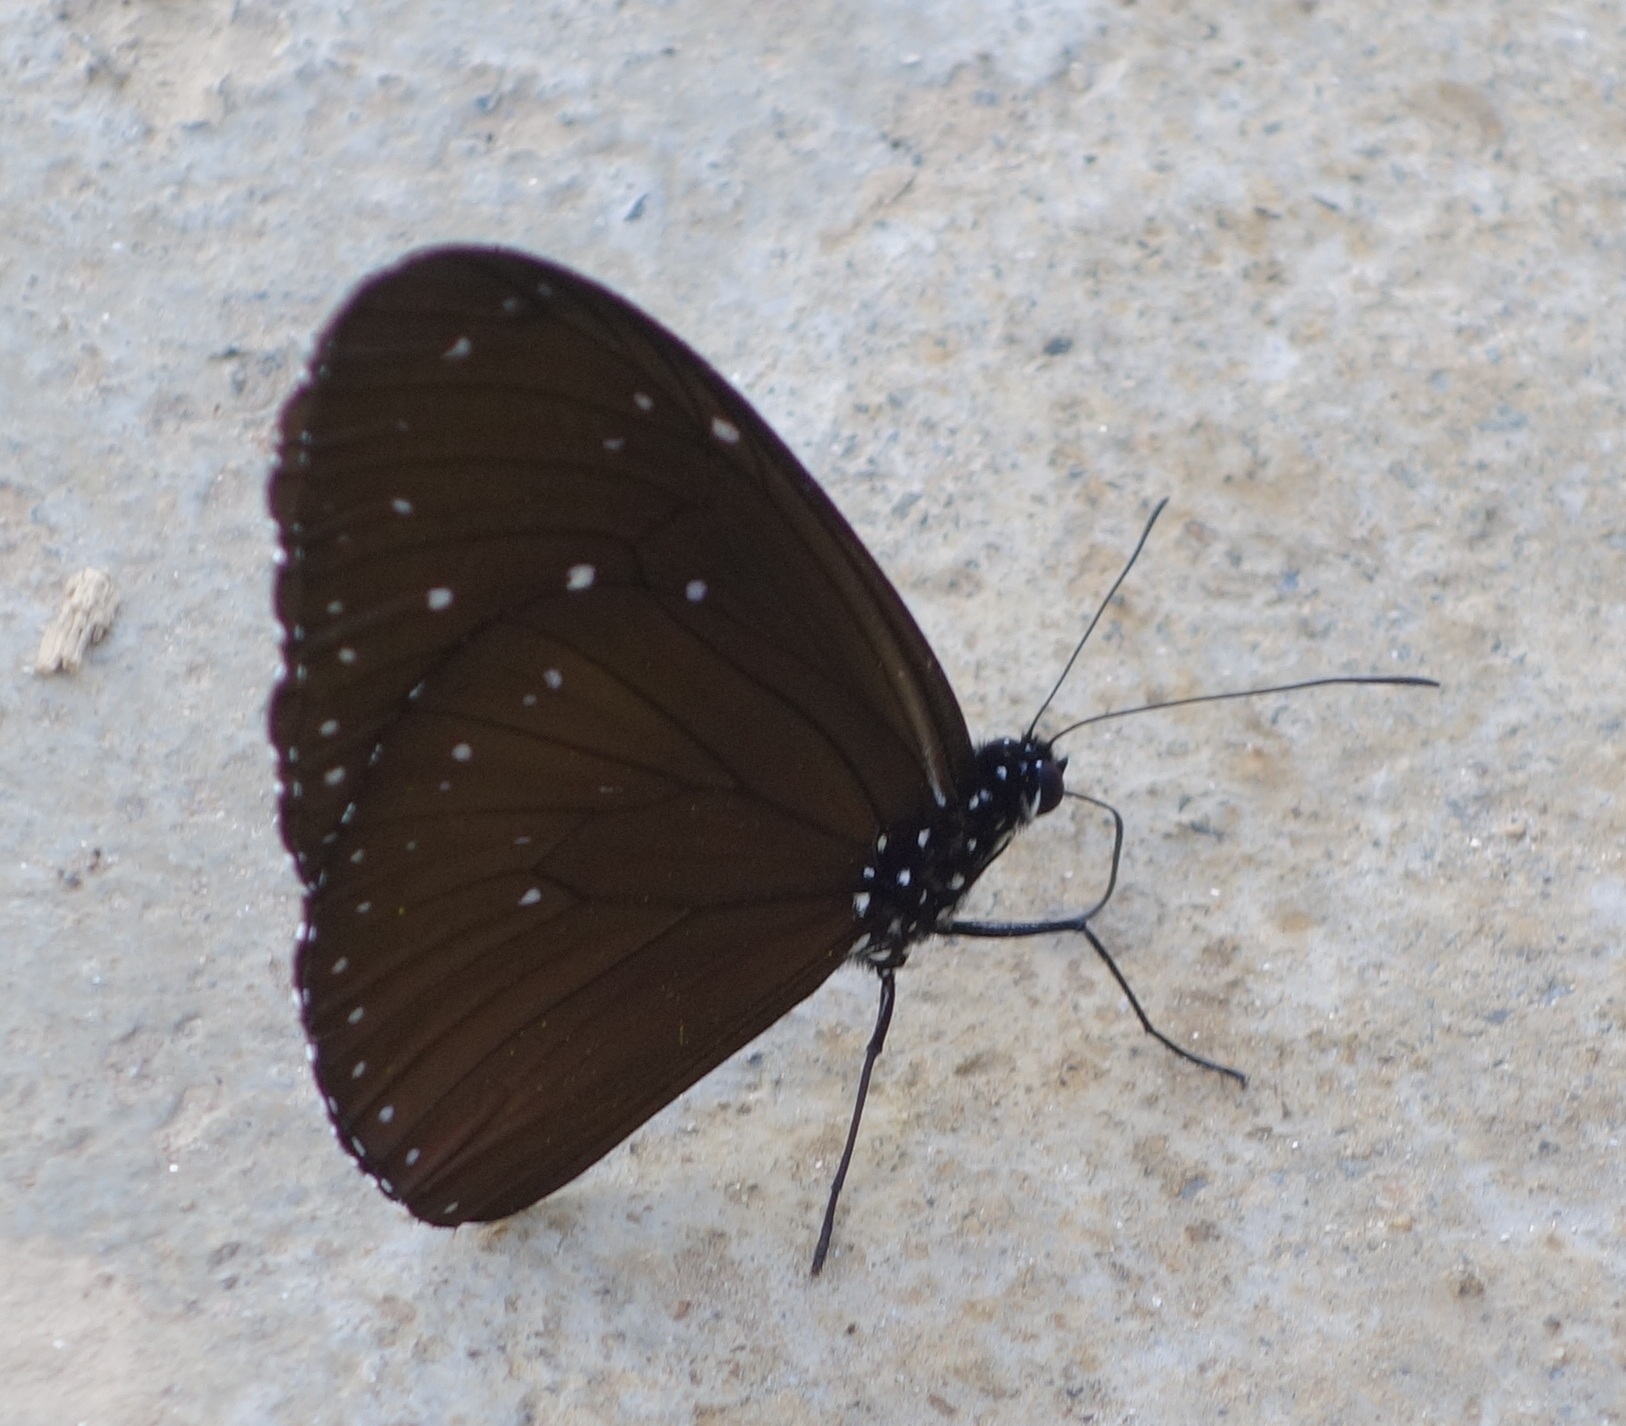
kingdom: Animalia
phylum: Arthropoda
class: Insecta
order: Lepidoptera
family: Nymphalidae
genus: Euploea
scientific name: Euploea mulciber
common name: Striped blue crow butterfly
